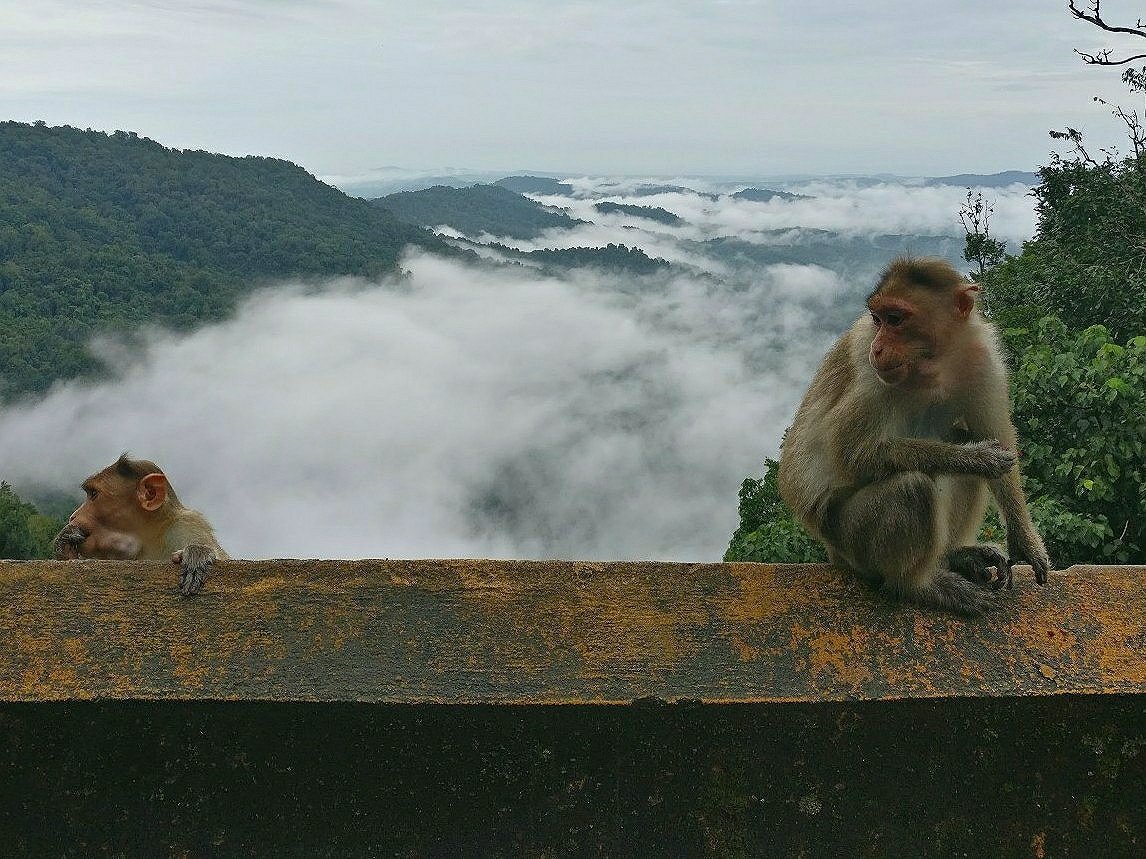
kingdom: Animalia
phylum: Chordata
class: Mammalia
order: Primates
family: Cercopithecidae
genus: Macaca
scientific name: Macaca radiata
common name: Bonnet macaque
